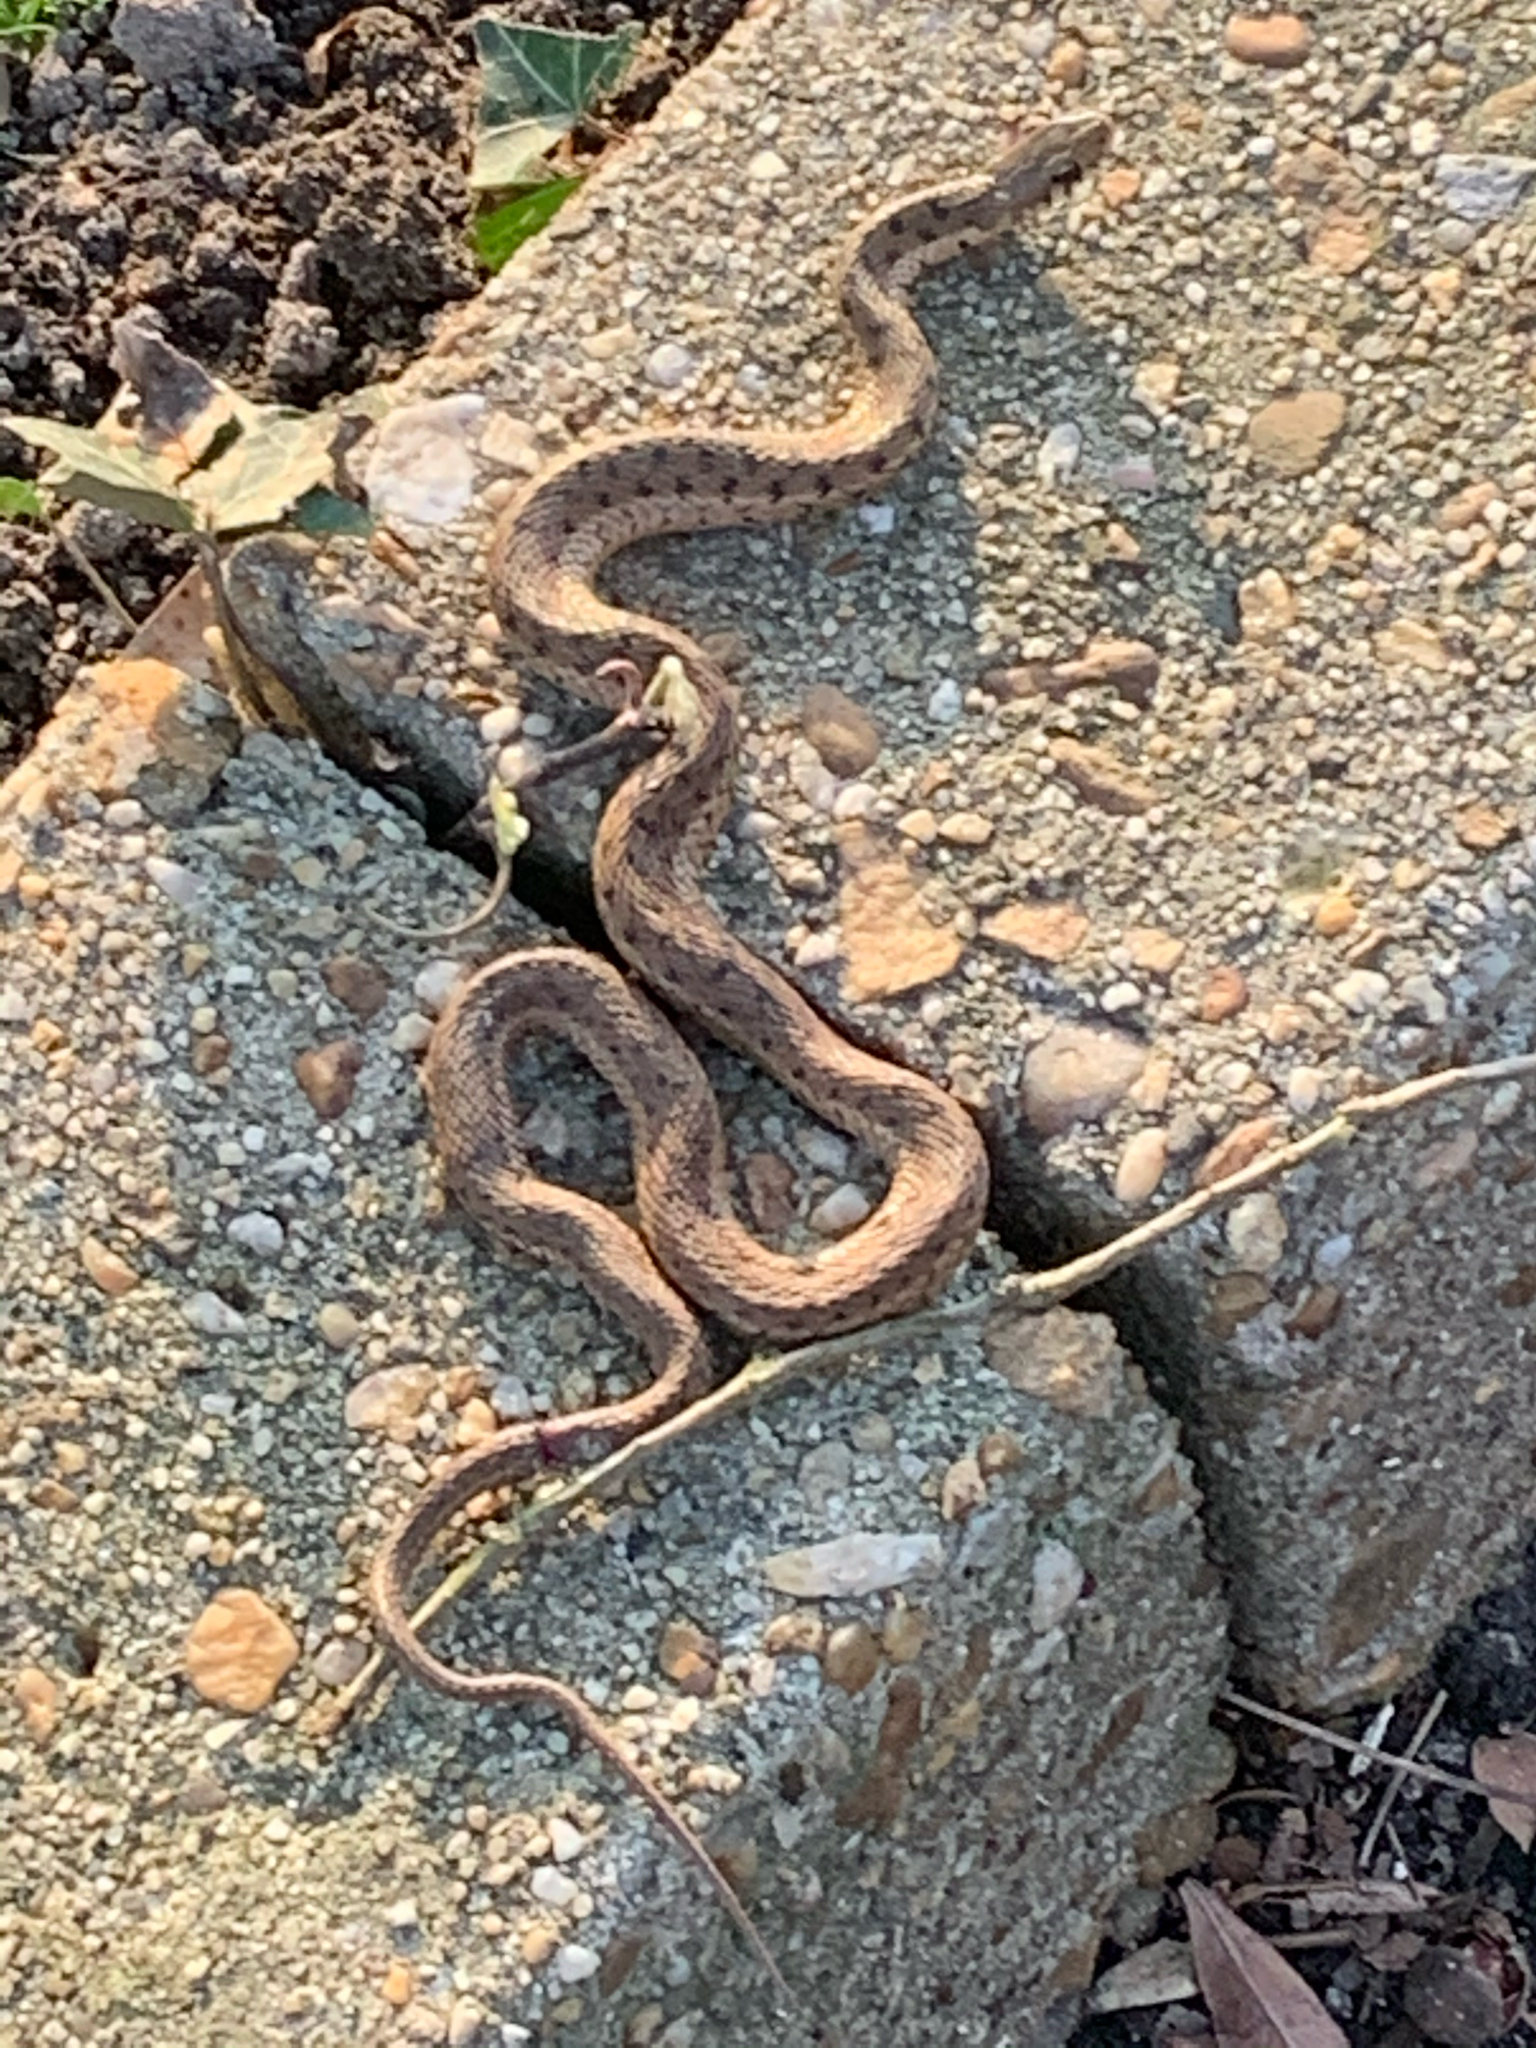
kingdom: Animalia
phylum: Chordata
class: Squamata
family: Colubridae
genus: Thamnophis
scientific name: Thamnophis sirtalis
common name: Common garter snake
